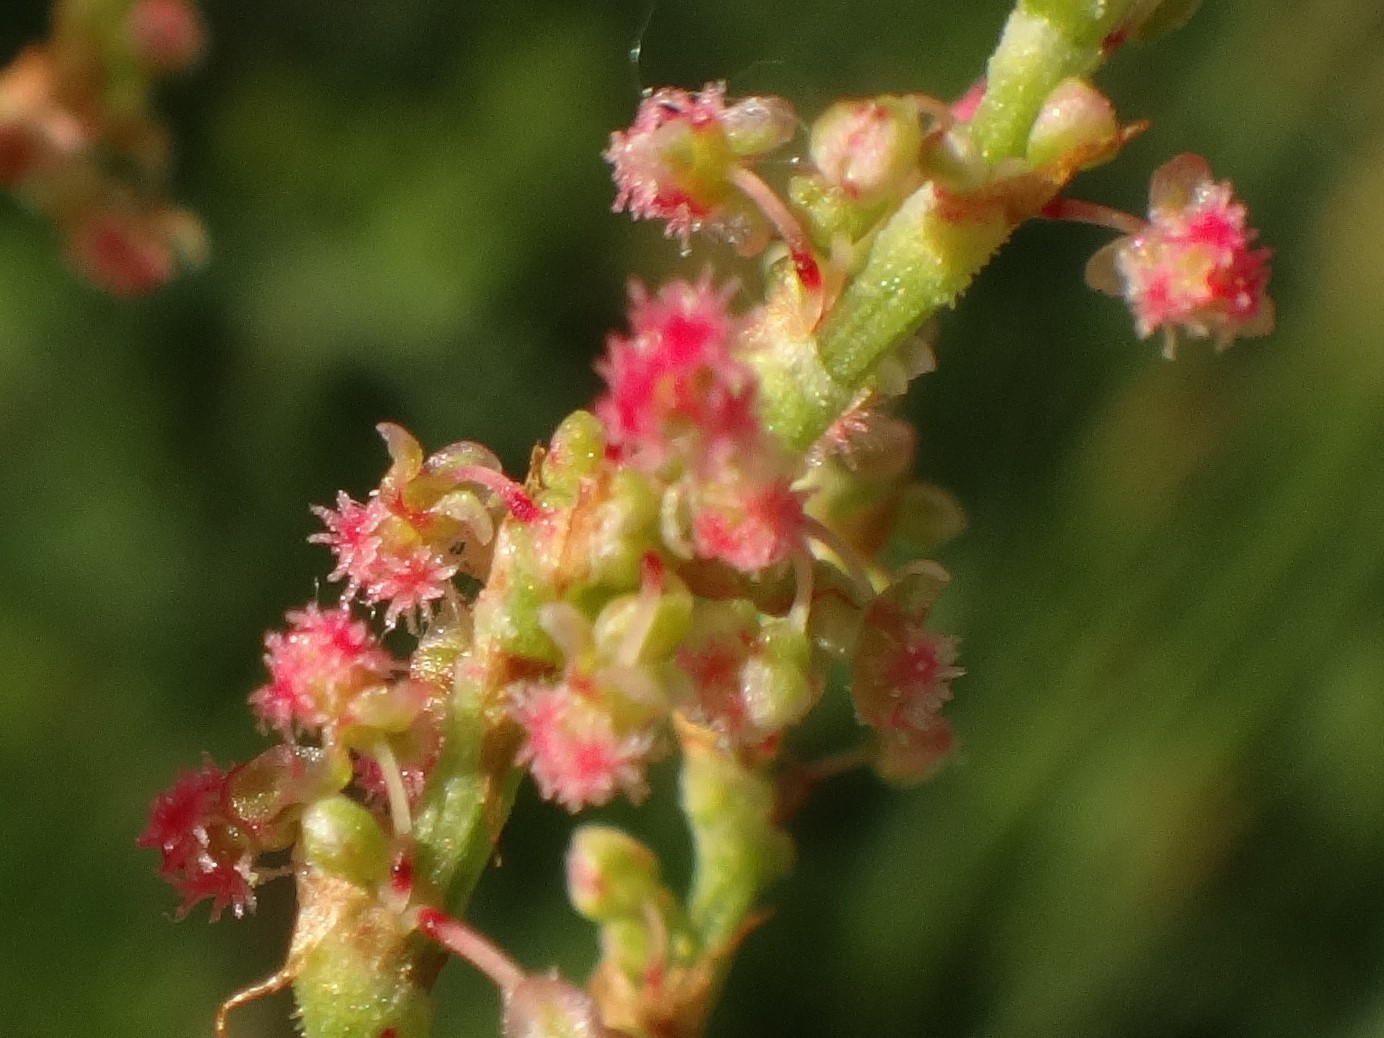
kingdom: Plantae
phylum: Tracheophyta
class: Magnoliopsida
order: Caryophyllales
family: Polygonaceae
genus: Rumex
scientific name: Rumex thyrsiflorus
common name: Garden sorrel
